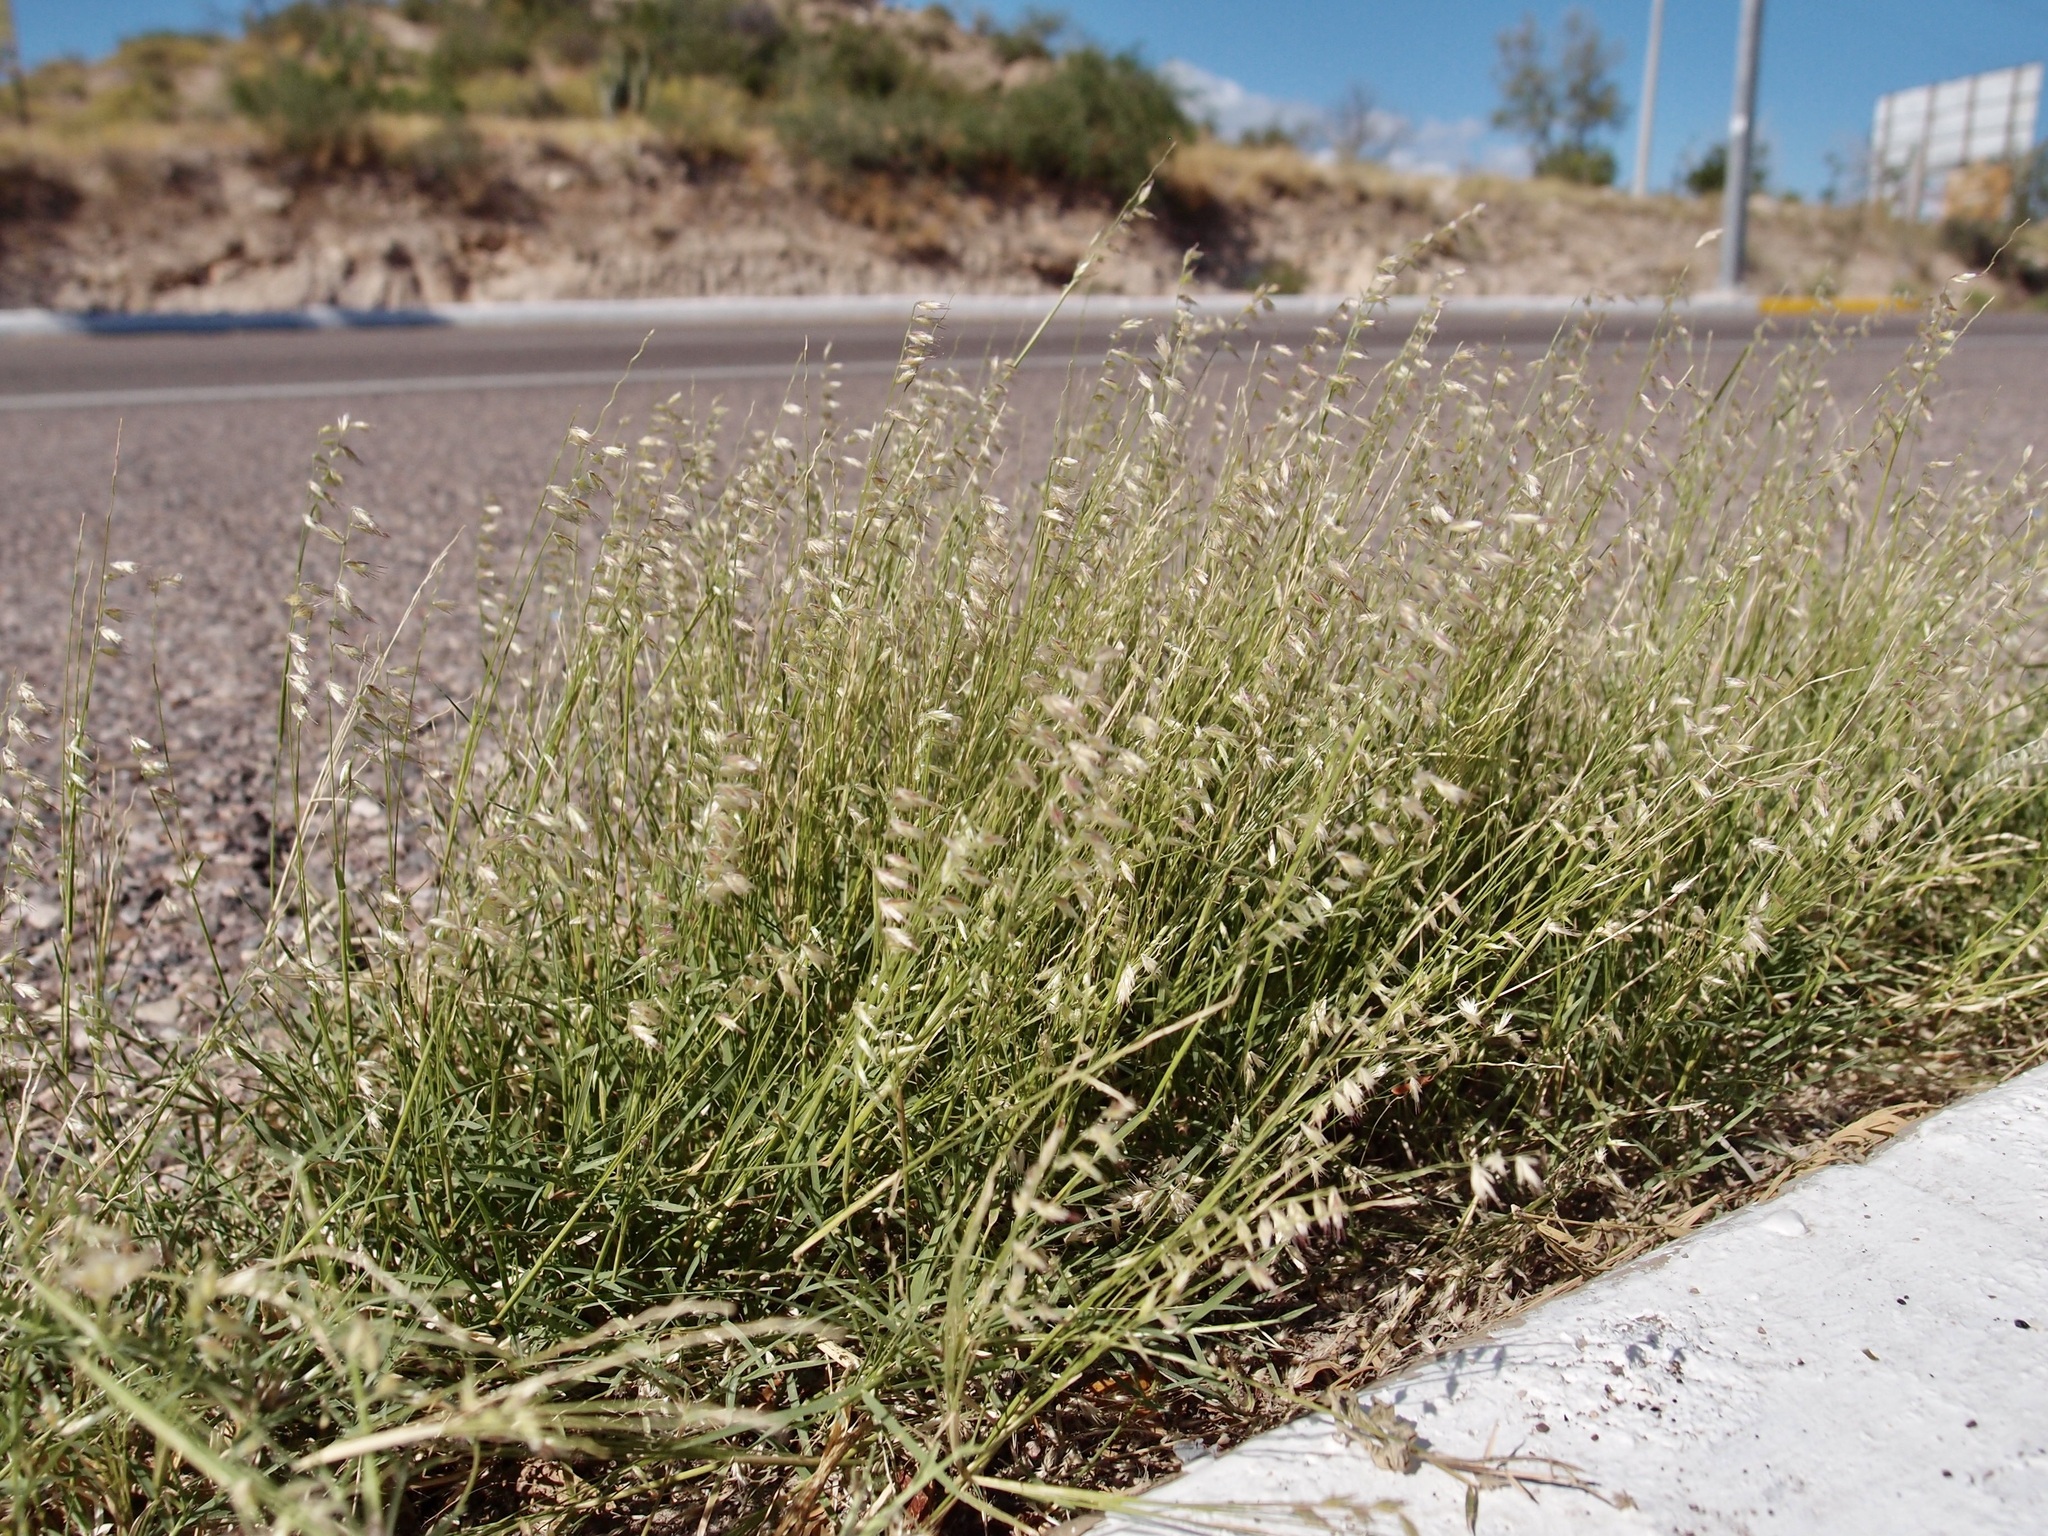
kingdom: Plantae
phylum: Tracheophyta
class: Liliopsida
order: Poales
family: Poaceae
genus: Bouteloua
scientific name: Bouteloua diversispicula
